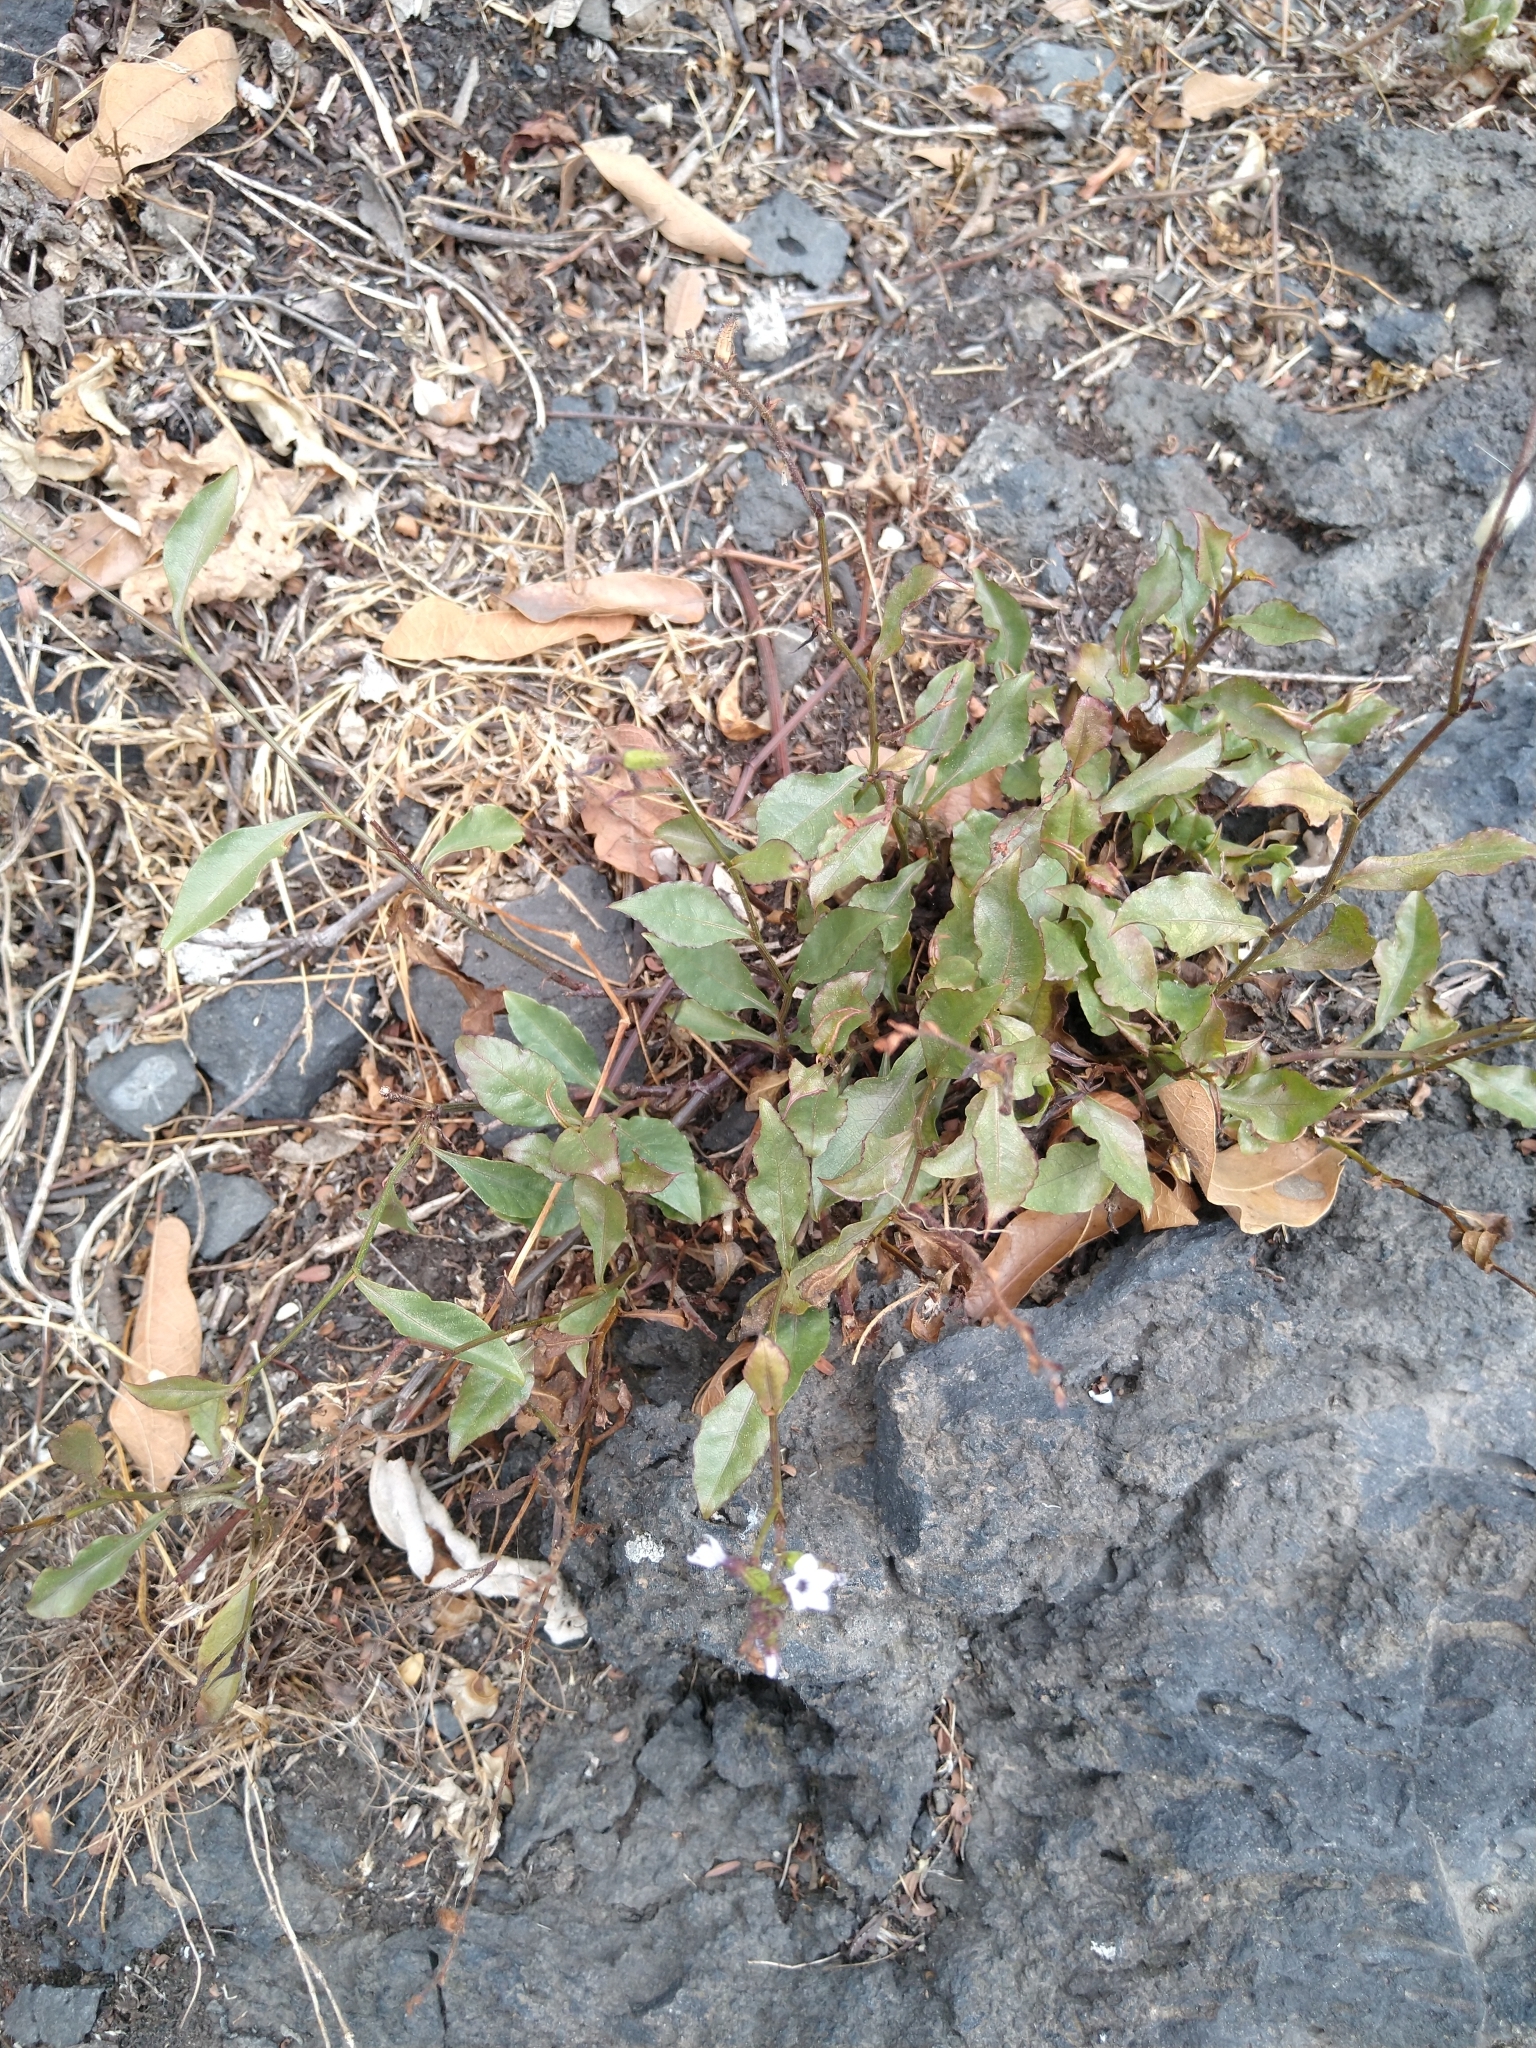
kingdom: Plantae
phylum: Tracheophyta
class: Magnoliopsida
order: Caryophyllales
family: Plumbaginaceae
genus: Plumbago
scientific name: Plumbago pulchella
